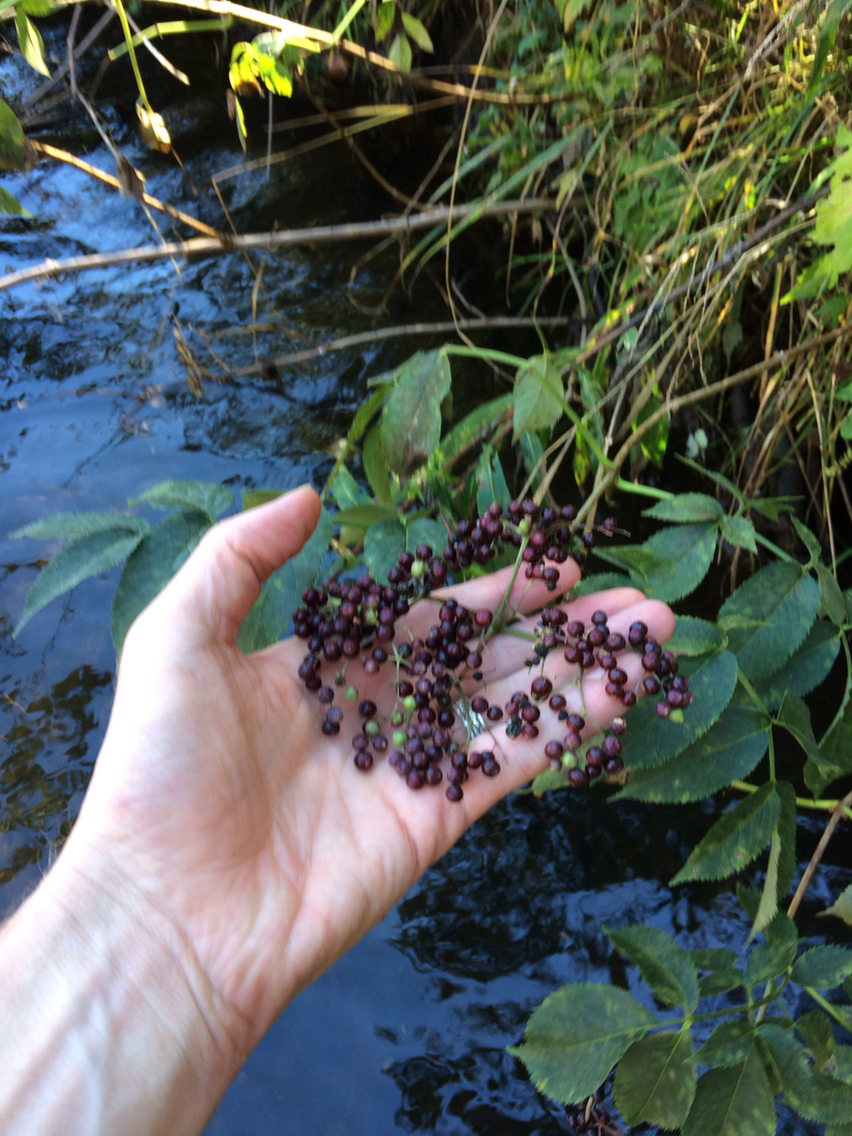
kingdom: Plantae
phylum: Tracheophyta
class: Magnoliopsida
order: Dipsacales
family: Viburnaceae
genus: Sambucus
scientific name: Sambucus canadensis
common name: American elder
